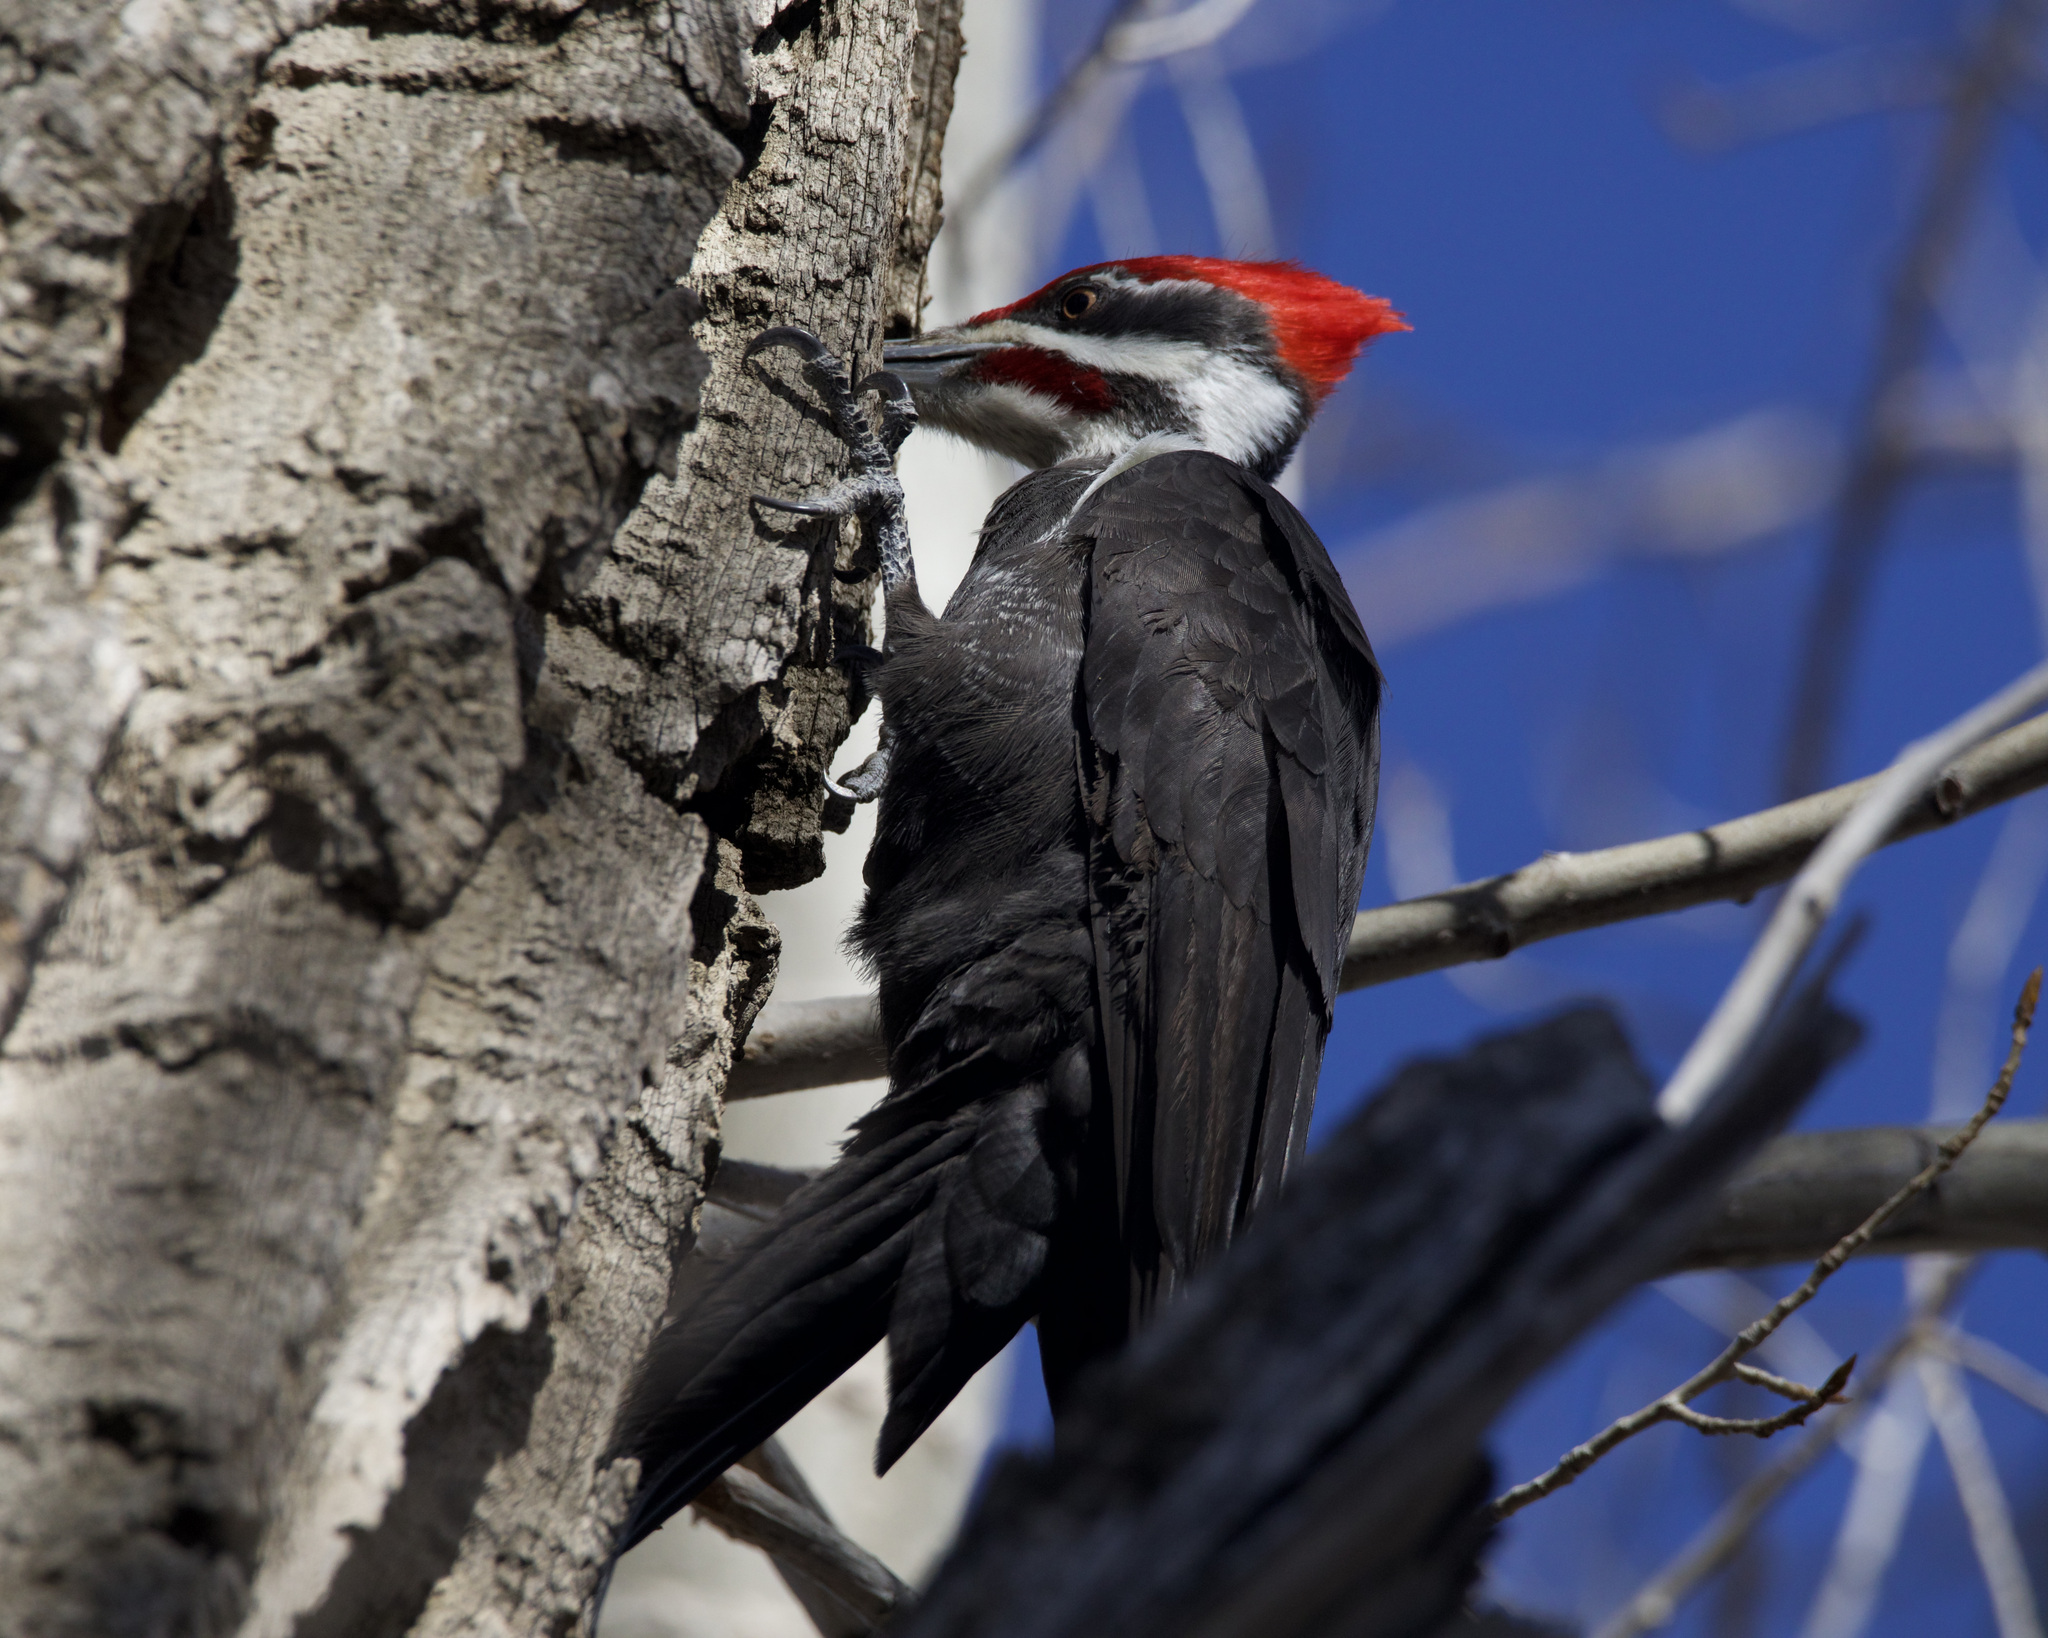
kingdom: Animalia
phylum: Chordata
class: Aves
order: Piciformes
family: Picidae
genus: Dryocopus
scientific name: Dryocopus pileatus
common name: Pileated woodpecker
